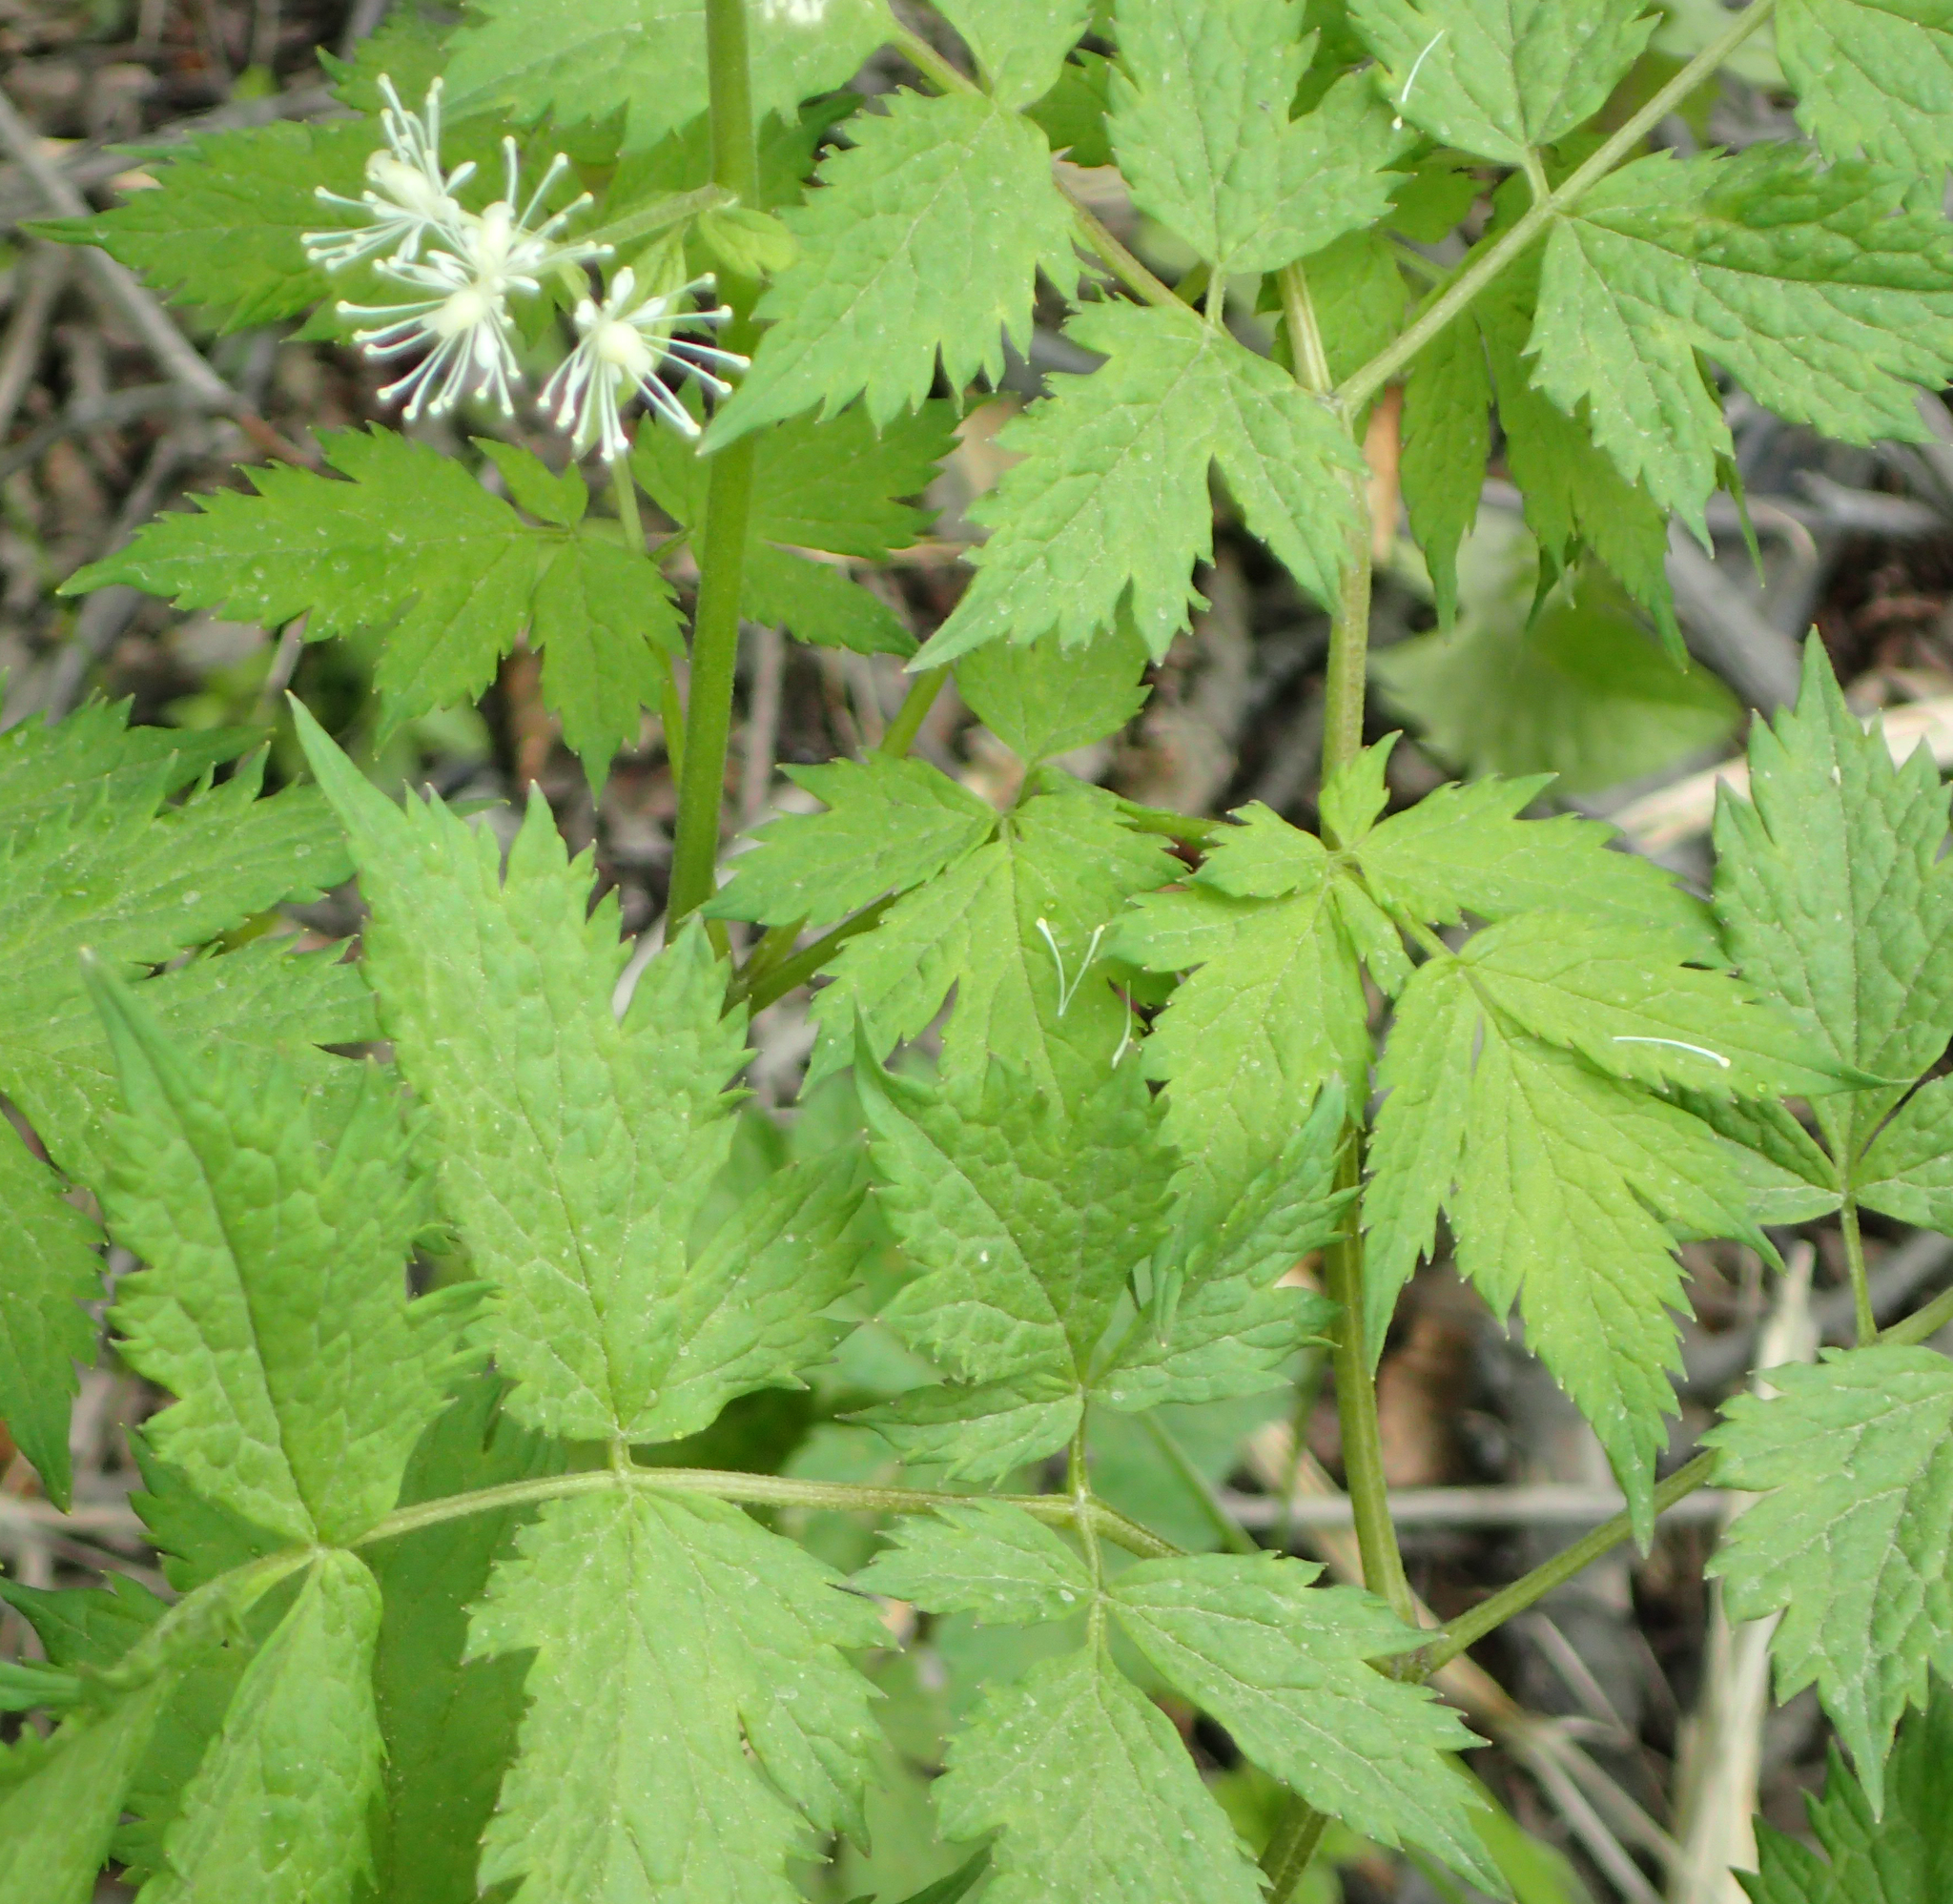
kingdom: Plantae
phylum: Tracheophyta
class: Magnoliopsida
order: Ranunculales
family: Ranunculaceae
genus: Actaea
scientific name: Actaea rubra
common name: Red baneberry
